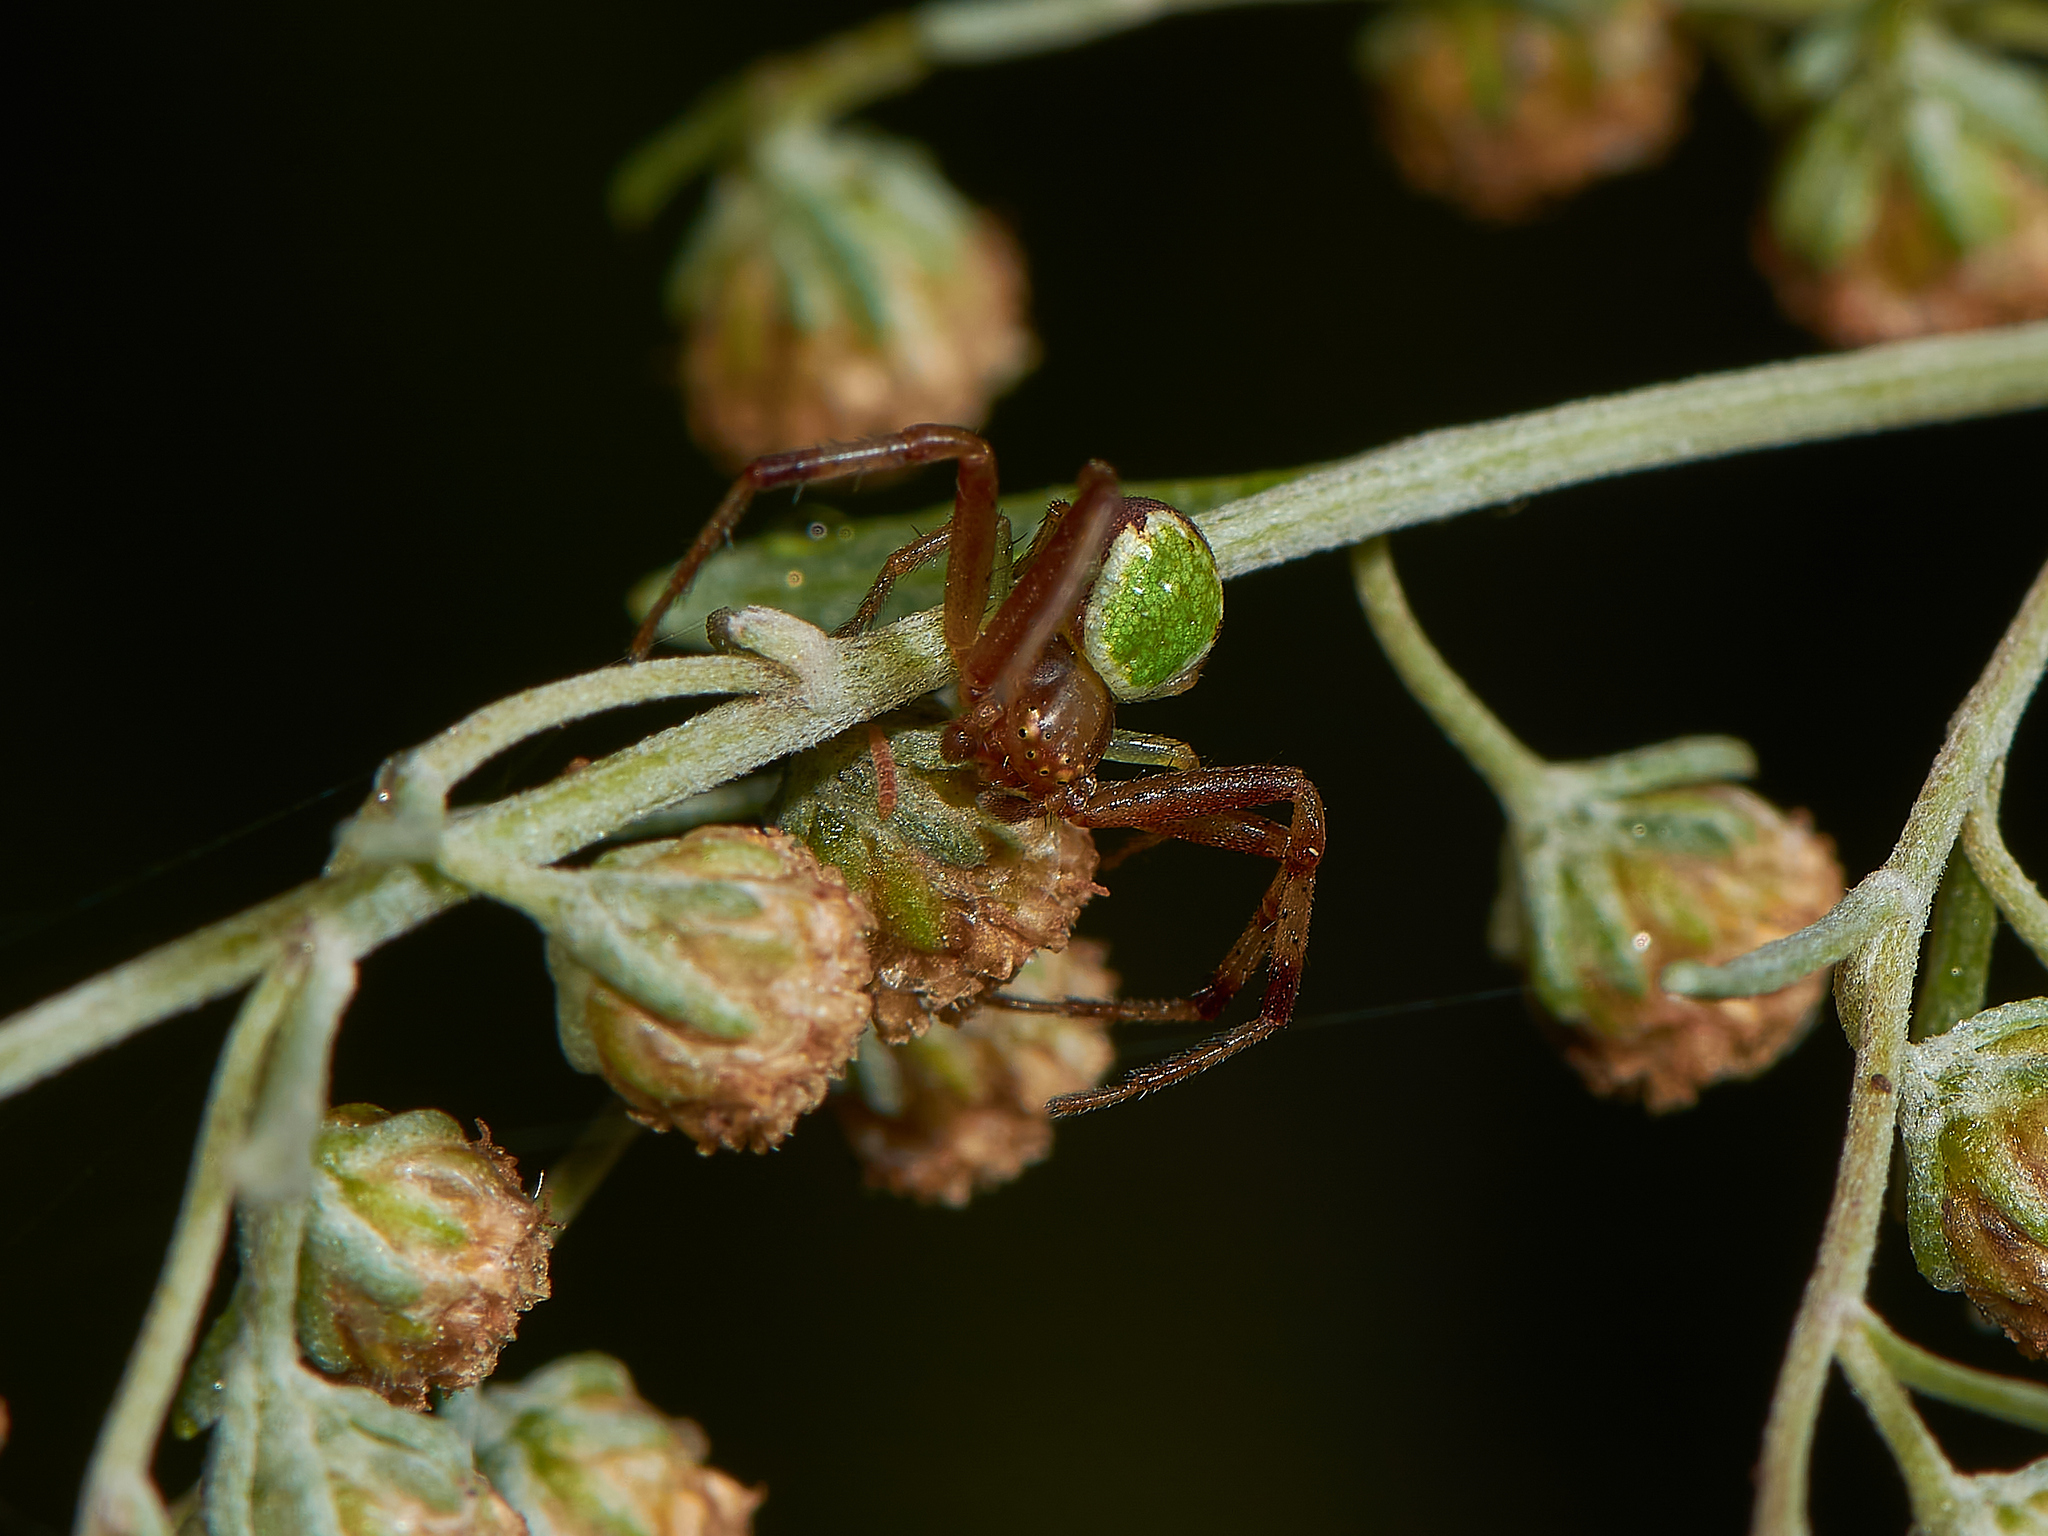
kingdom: Animalia
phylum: Arthropoda
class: Arachnida
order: Araneae
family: Thomisidae
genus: Ebrechtella
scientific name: Ebrechtella tricuspidata
